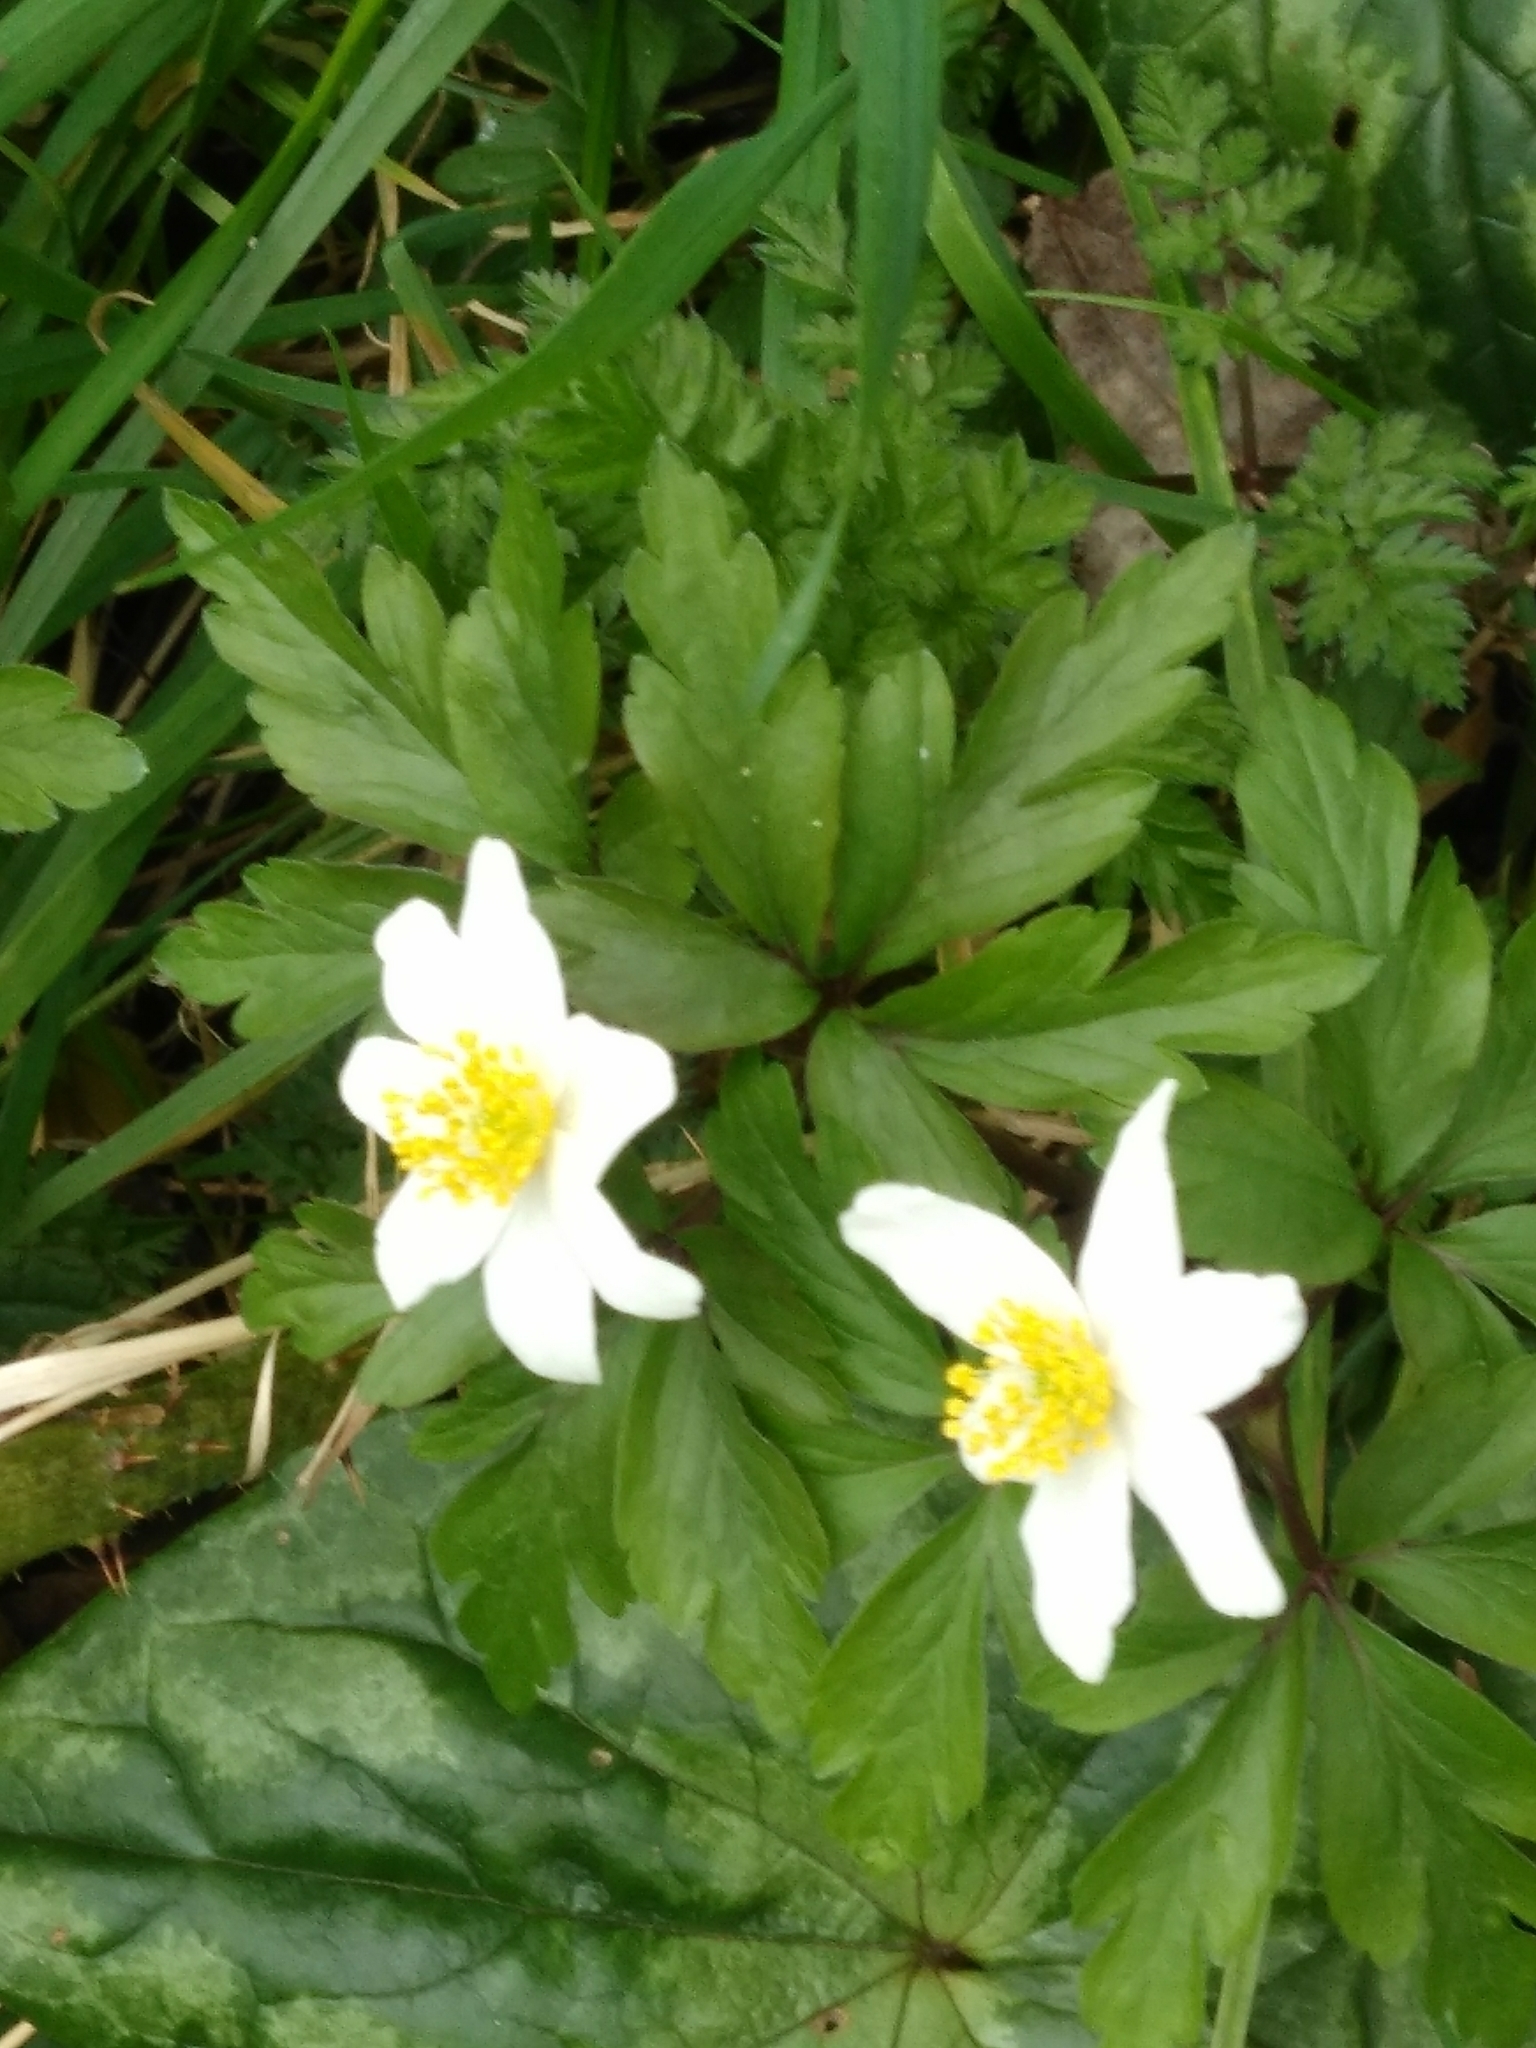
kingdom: Plantae
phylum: Tracheophyta
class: Magnoliopsida
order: Ranunculales
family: Ranunculaceae
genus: Anemone
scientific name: Anemone nemorosa
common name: Wood anemone
